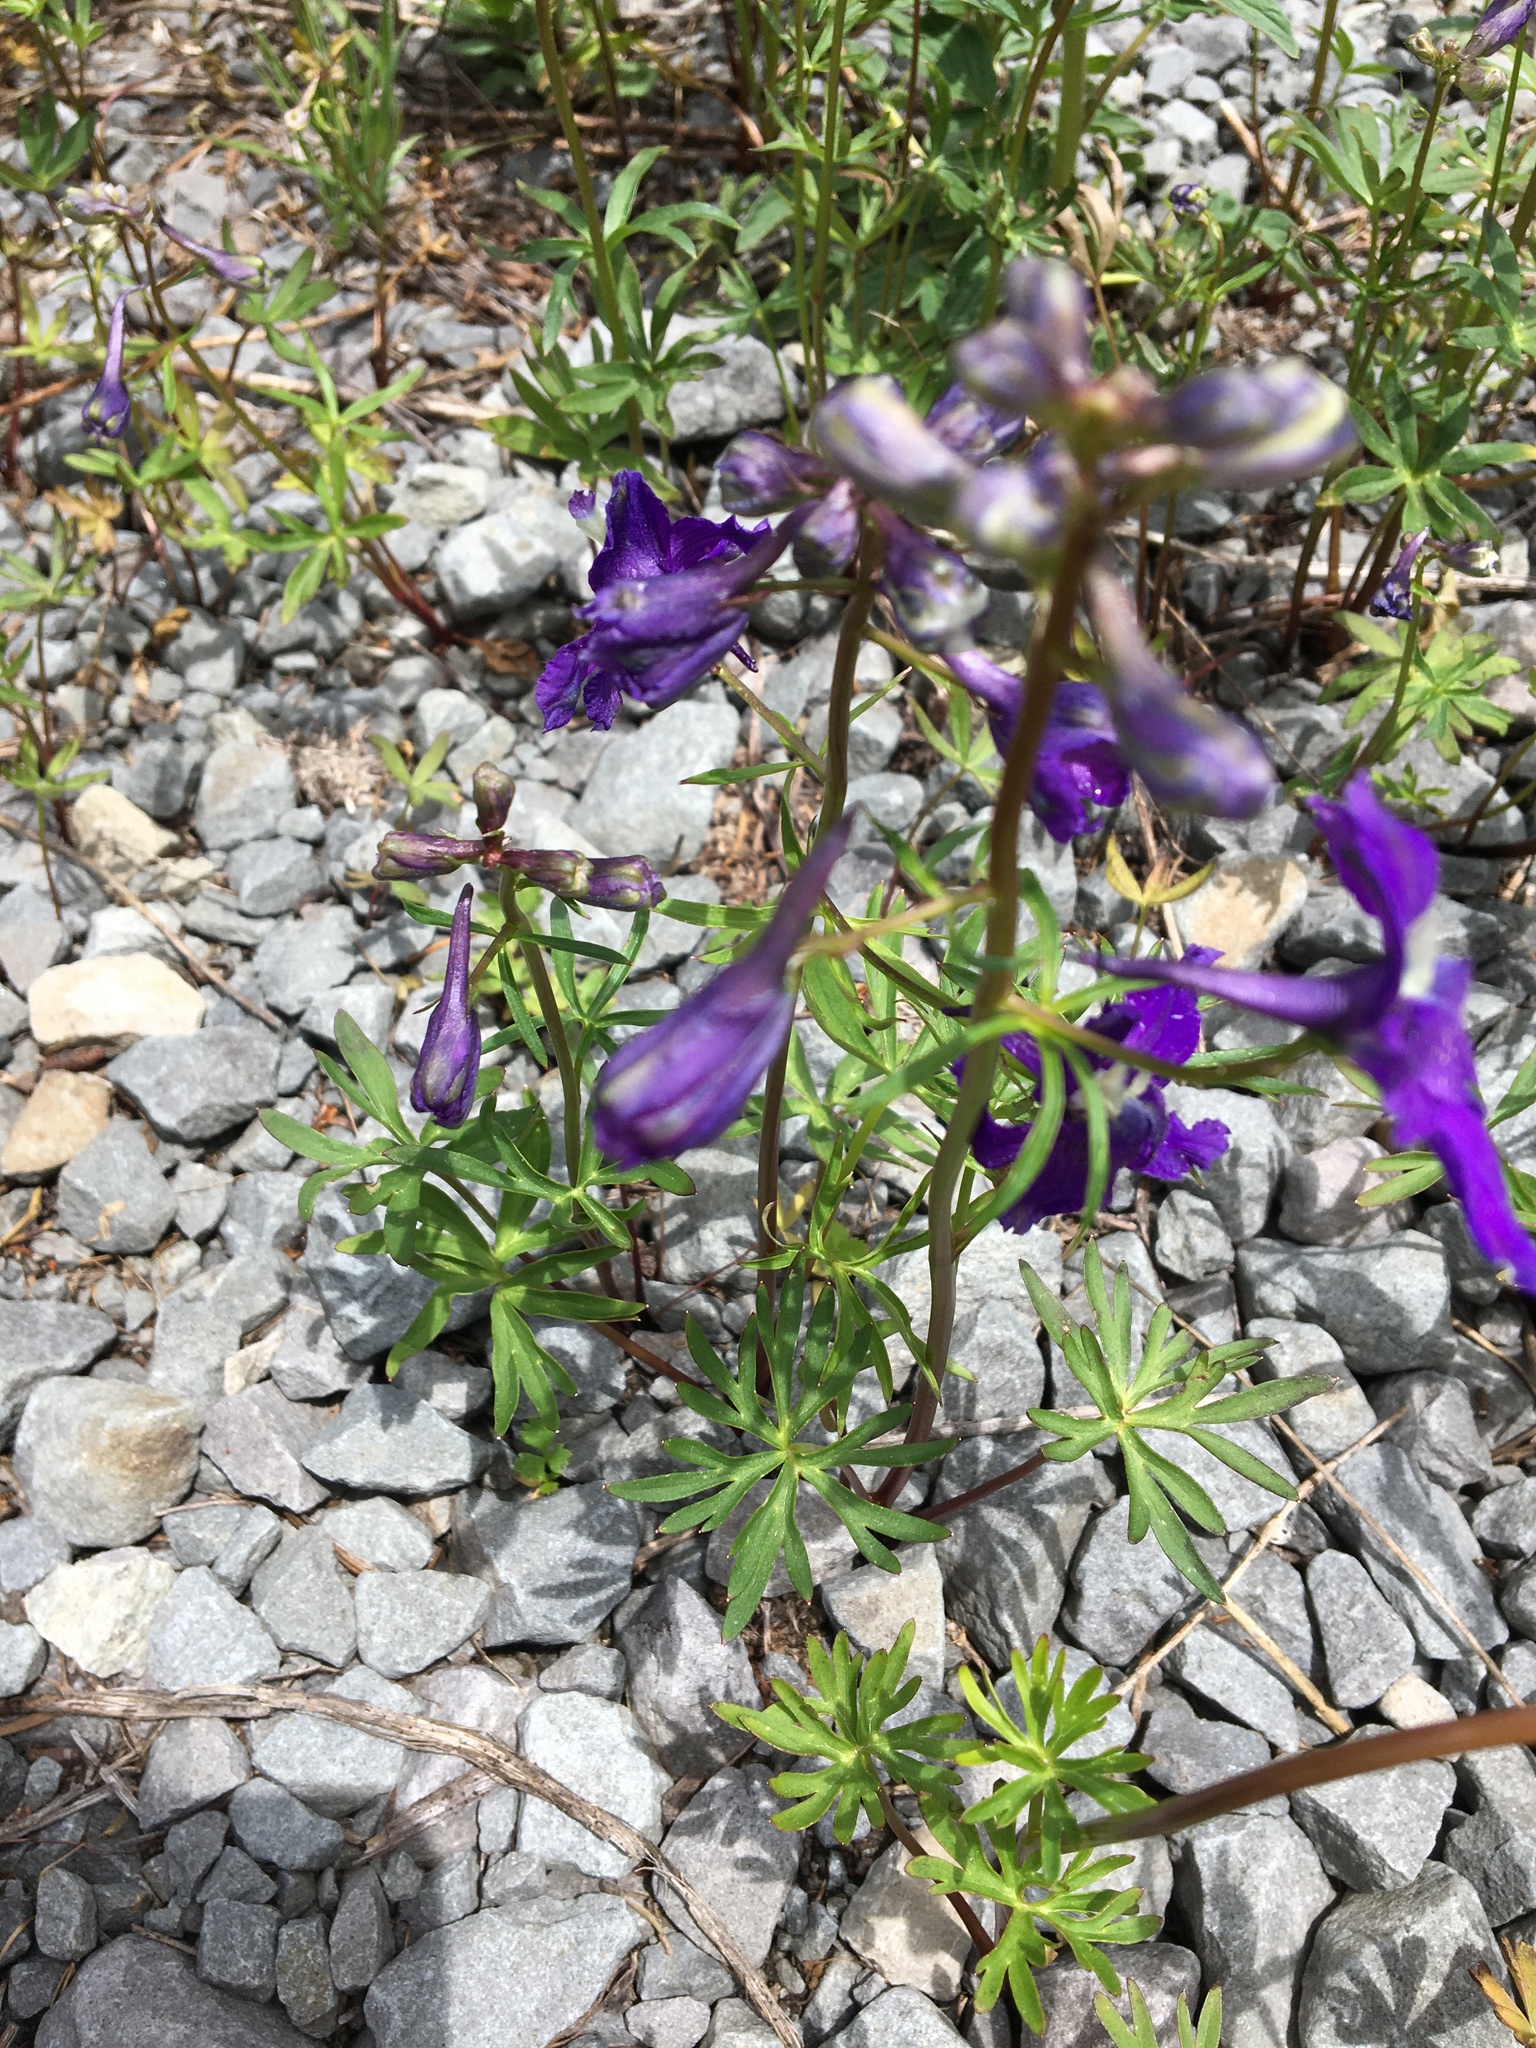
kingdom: Plantae
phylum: Tracheophyta
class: Magnoliopsida
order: Ranunculales
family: Ranunculaceae
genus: Delphinium
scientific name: Delphinium menziesii
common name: Menzies's larkspur
